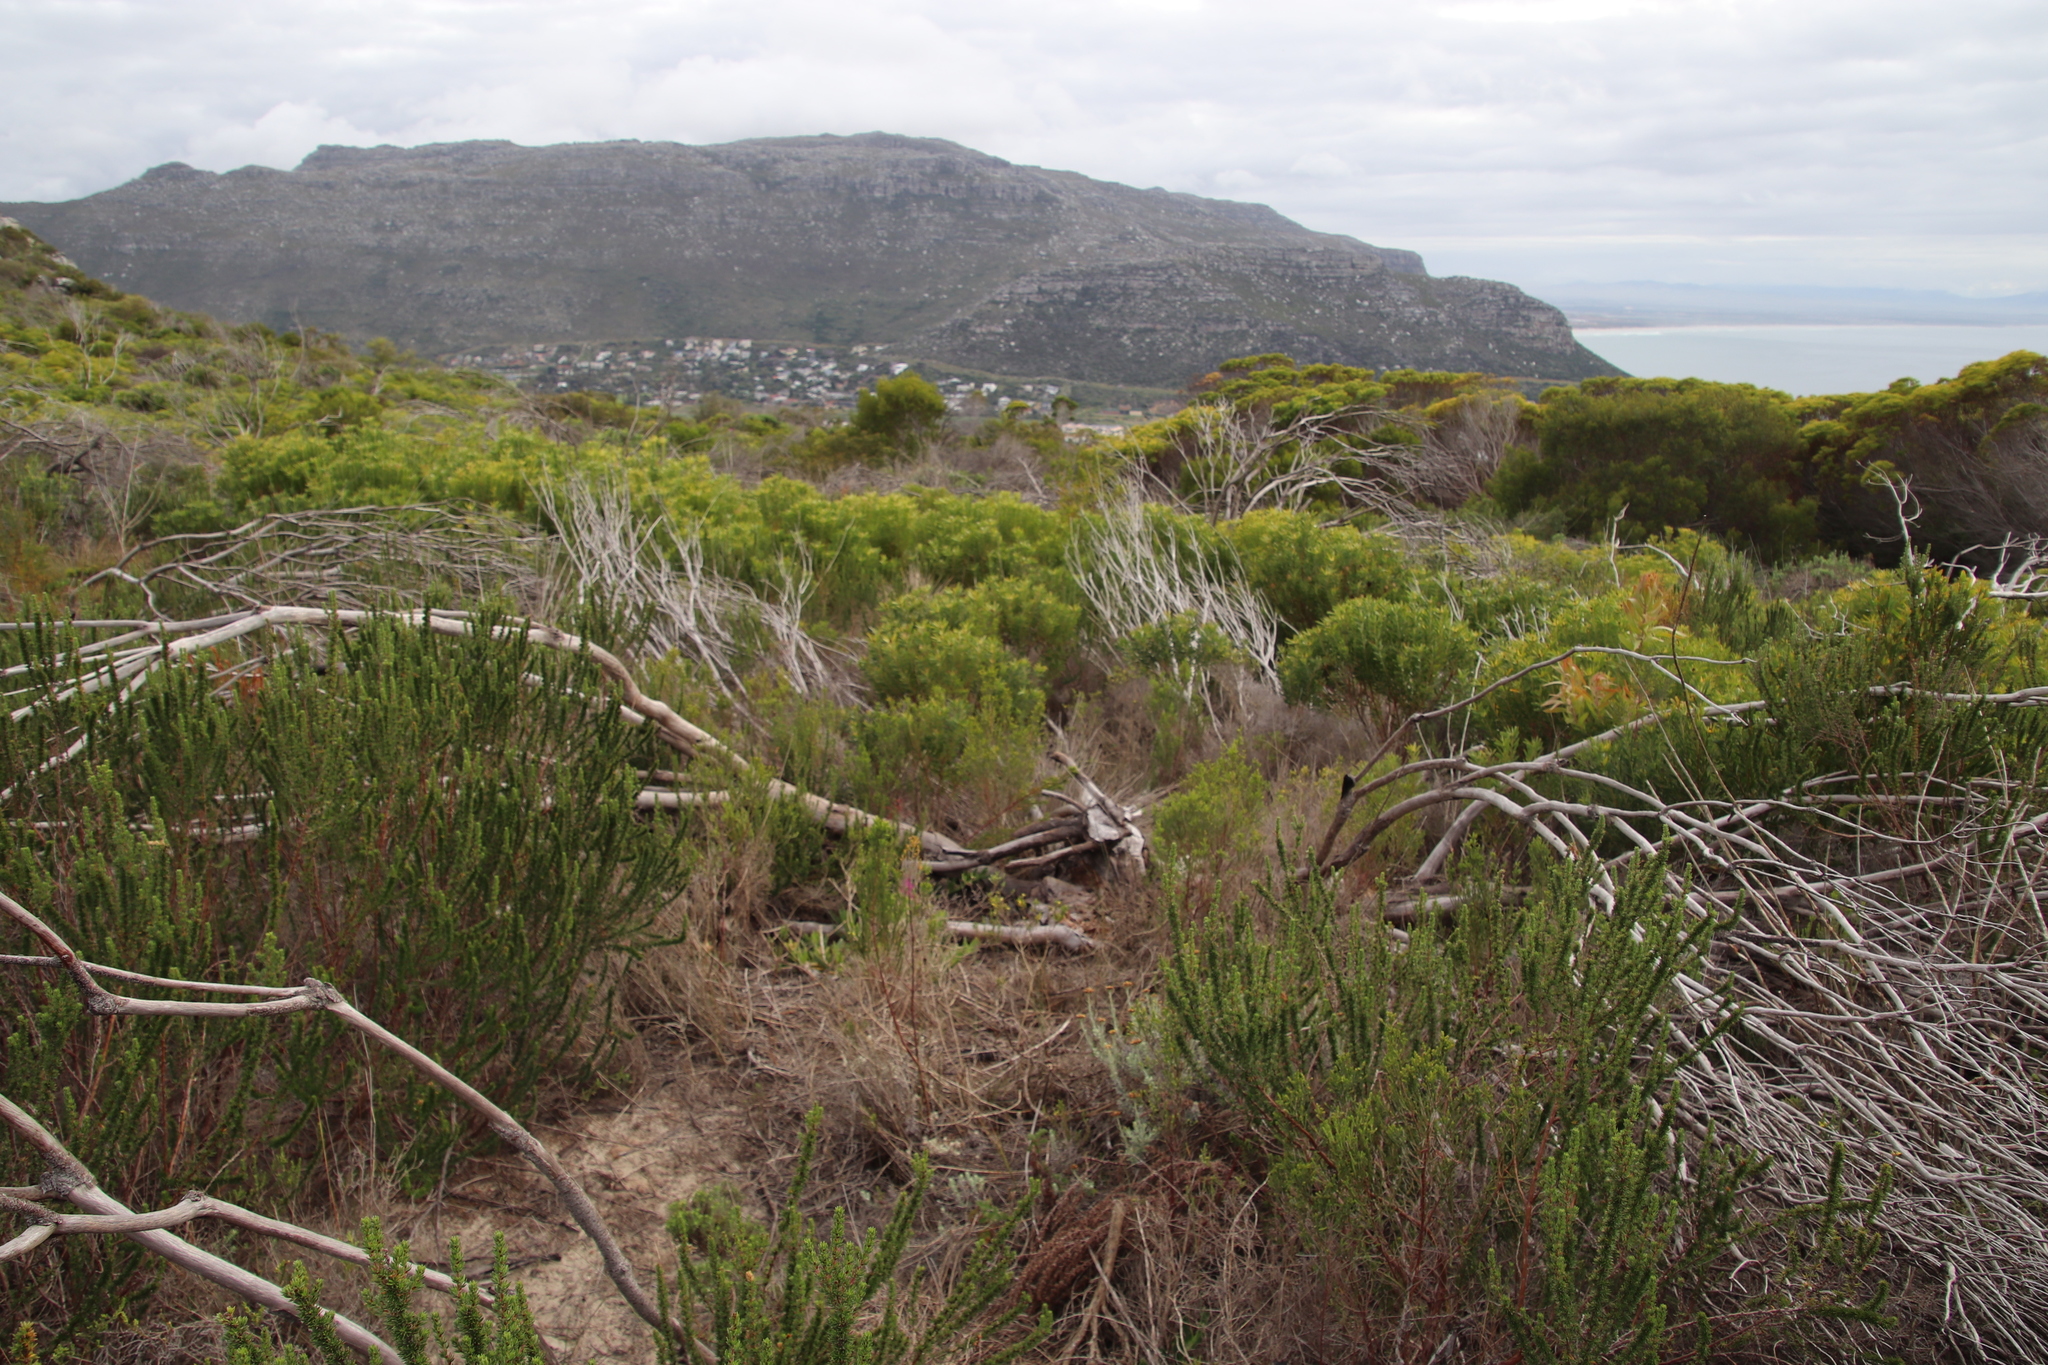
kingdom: Plantae
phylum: Tracheophyta
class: Magnoliopsida
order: Proteales
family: Proteaceae
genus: Leucadendron
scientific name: Leucadendron coniferum
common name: Dune conebush
